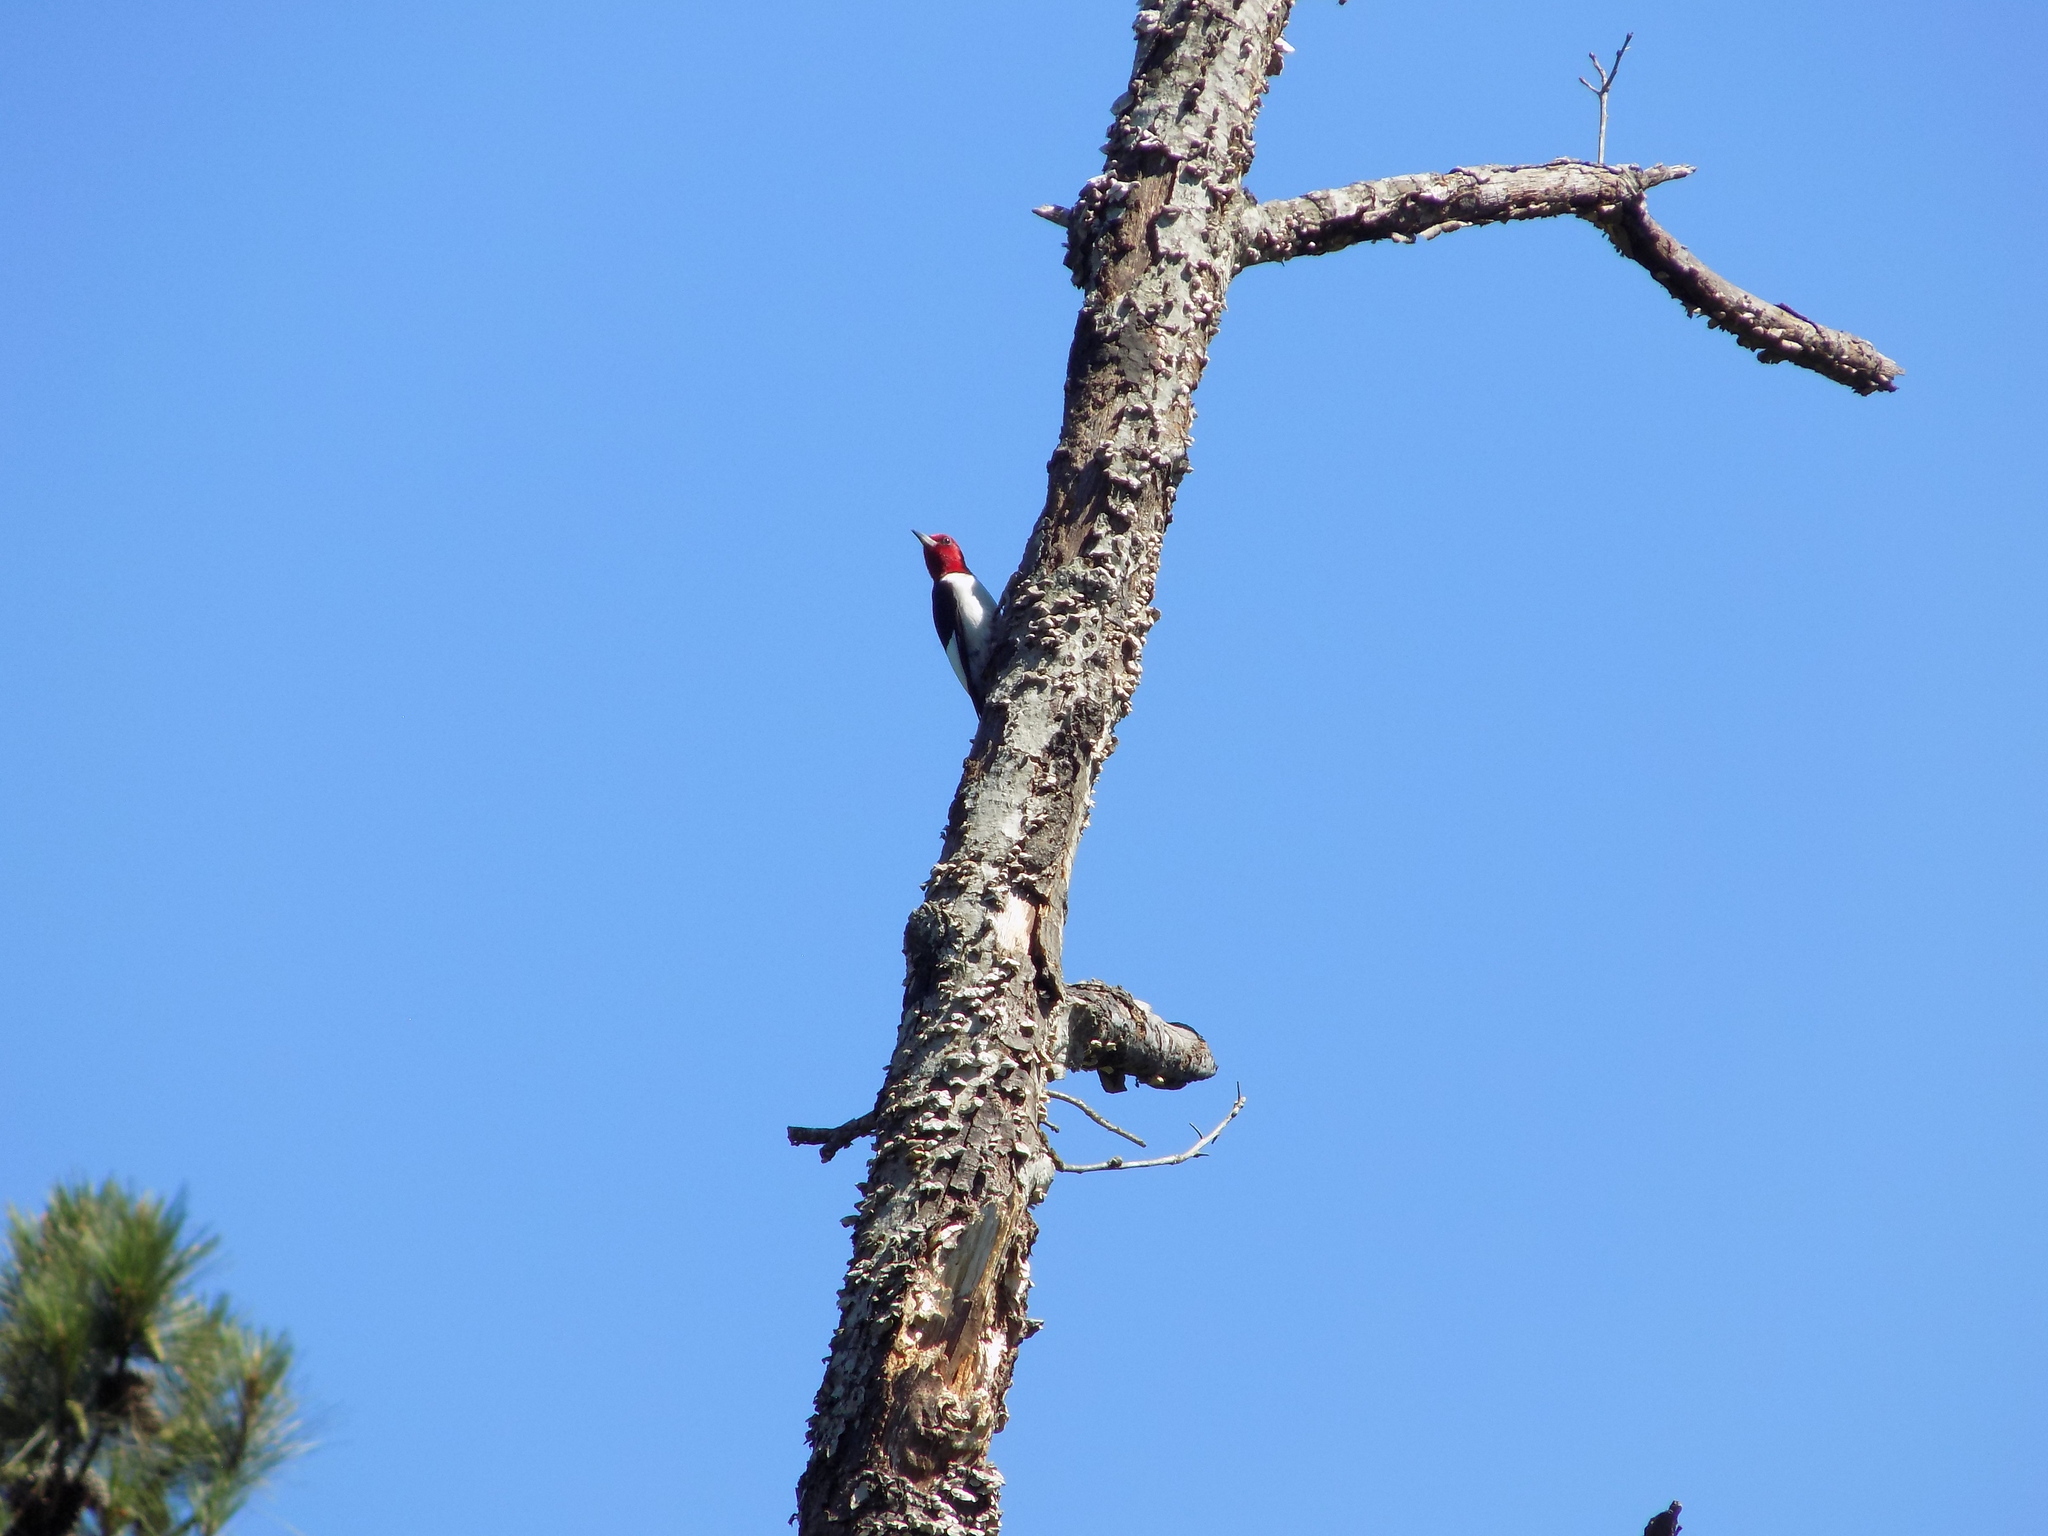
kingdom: Animalia
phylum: Chordata
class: Aves
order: Piciformes
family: Picidae
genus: Melanerpes
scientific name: Melanerpes erythrocephalus
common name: Red-headed woodpecker
